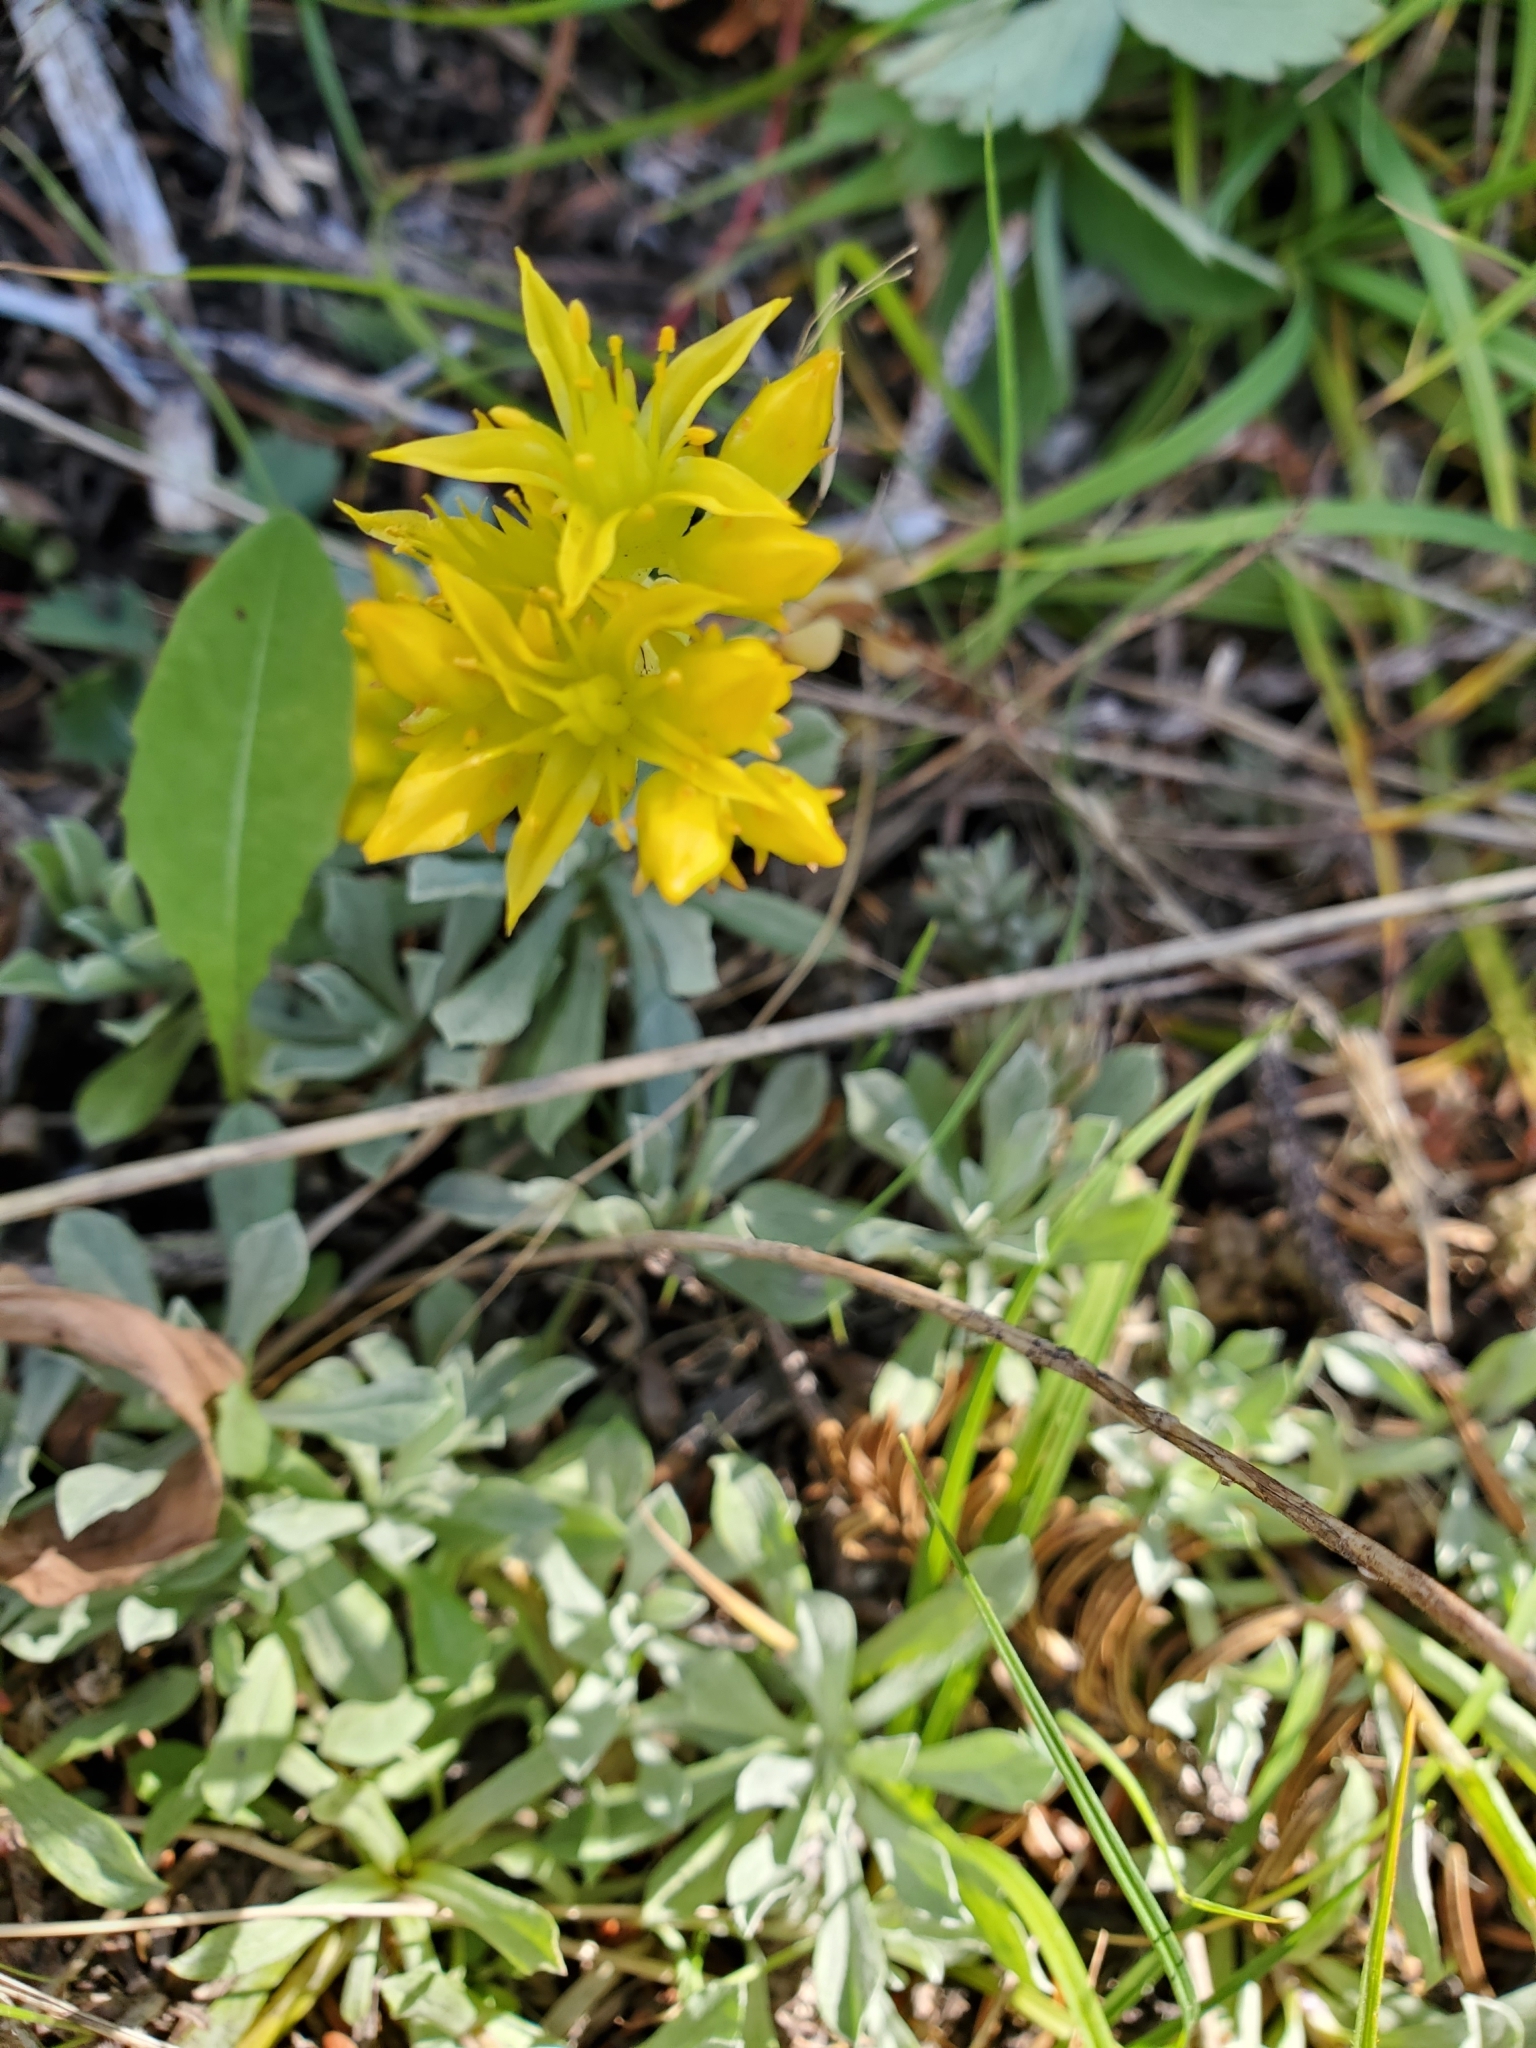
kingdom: Plantae
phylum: Tracheophyta
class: Magnoliopsida
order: Saxifragales
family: Crassulaceae
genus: Sedum
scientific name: Sedum lanceolatum
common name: Common stonecrop
